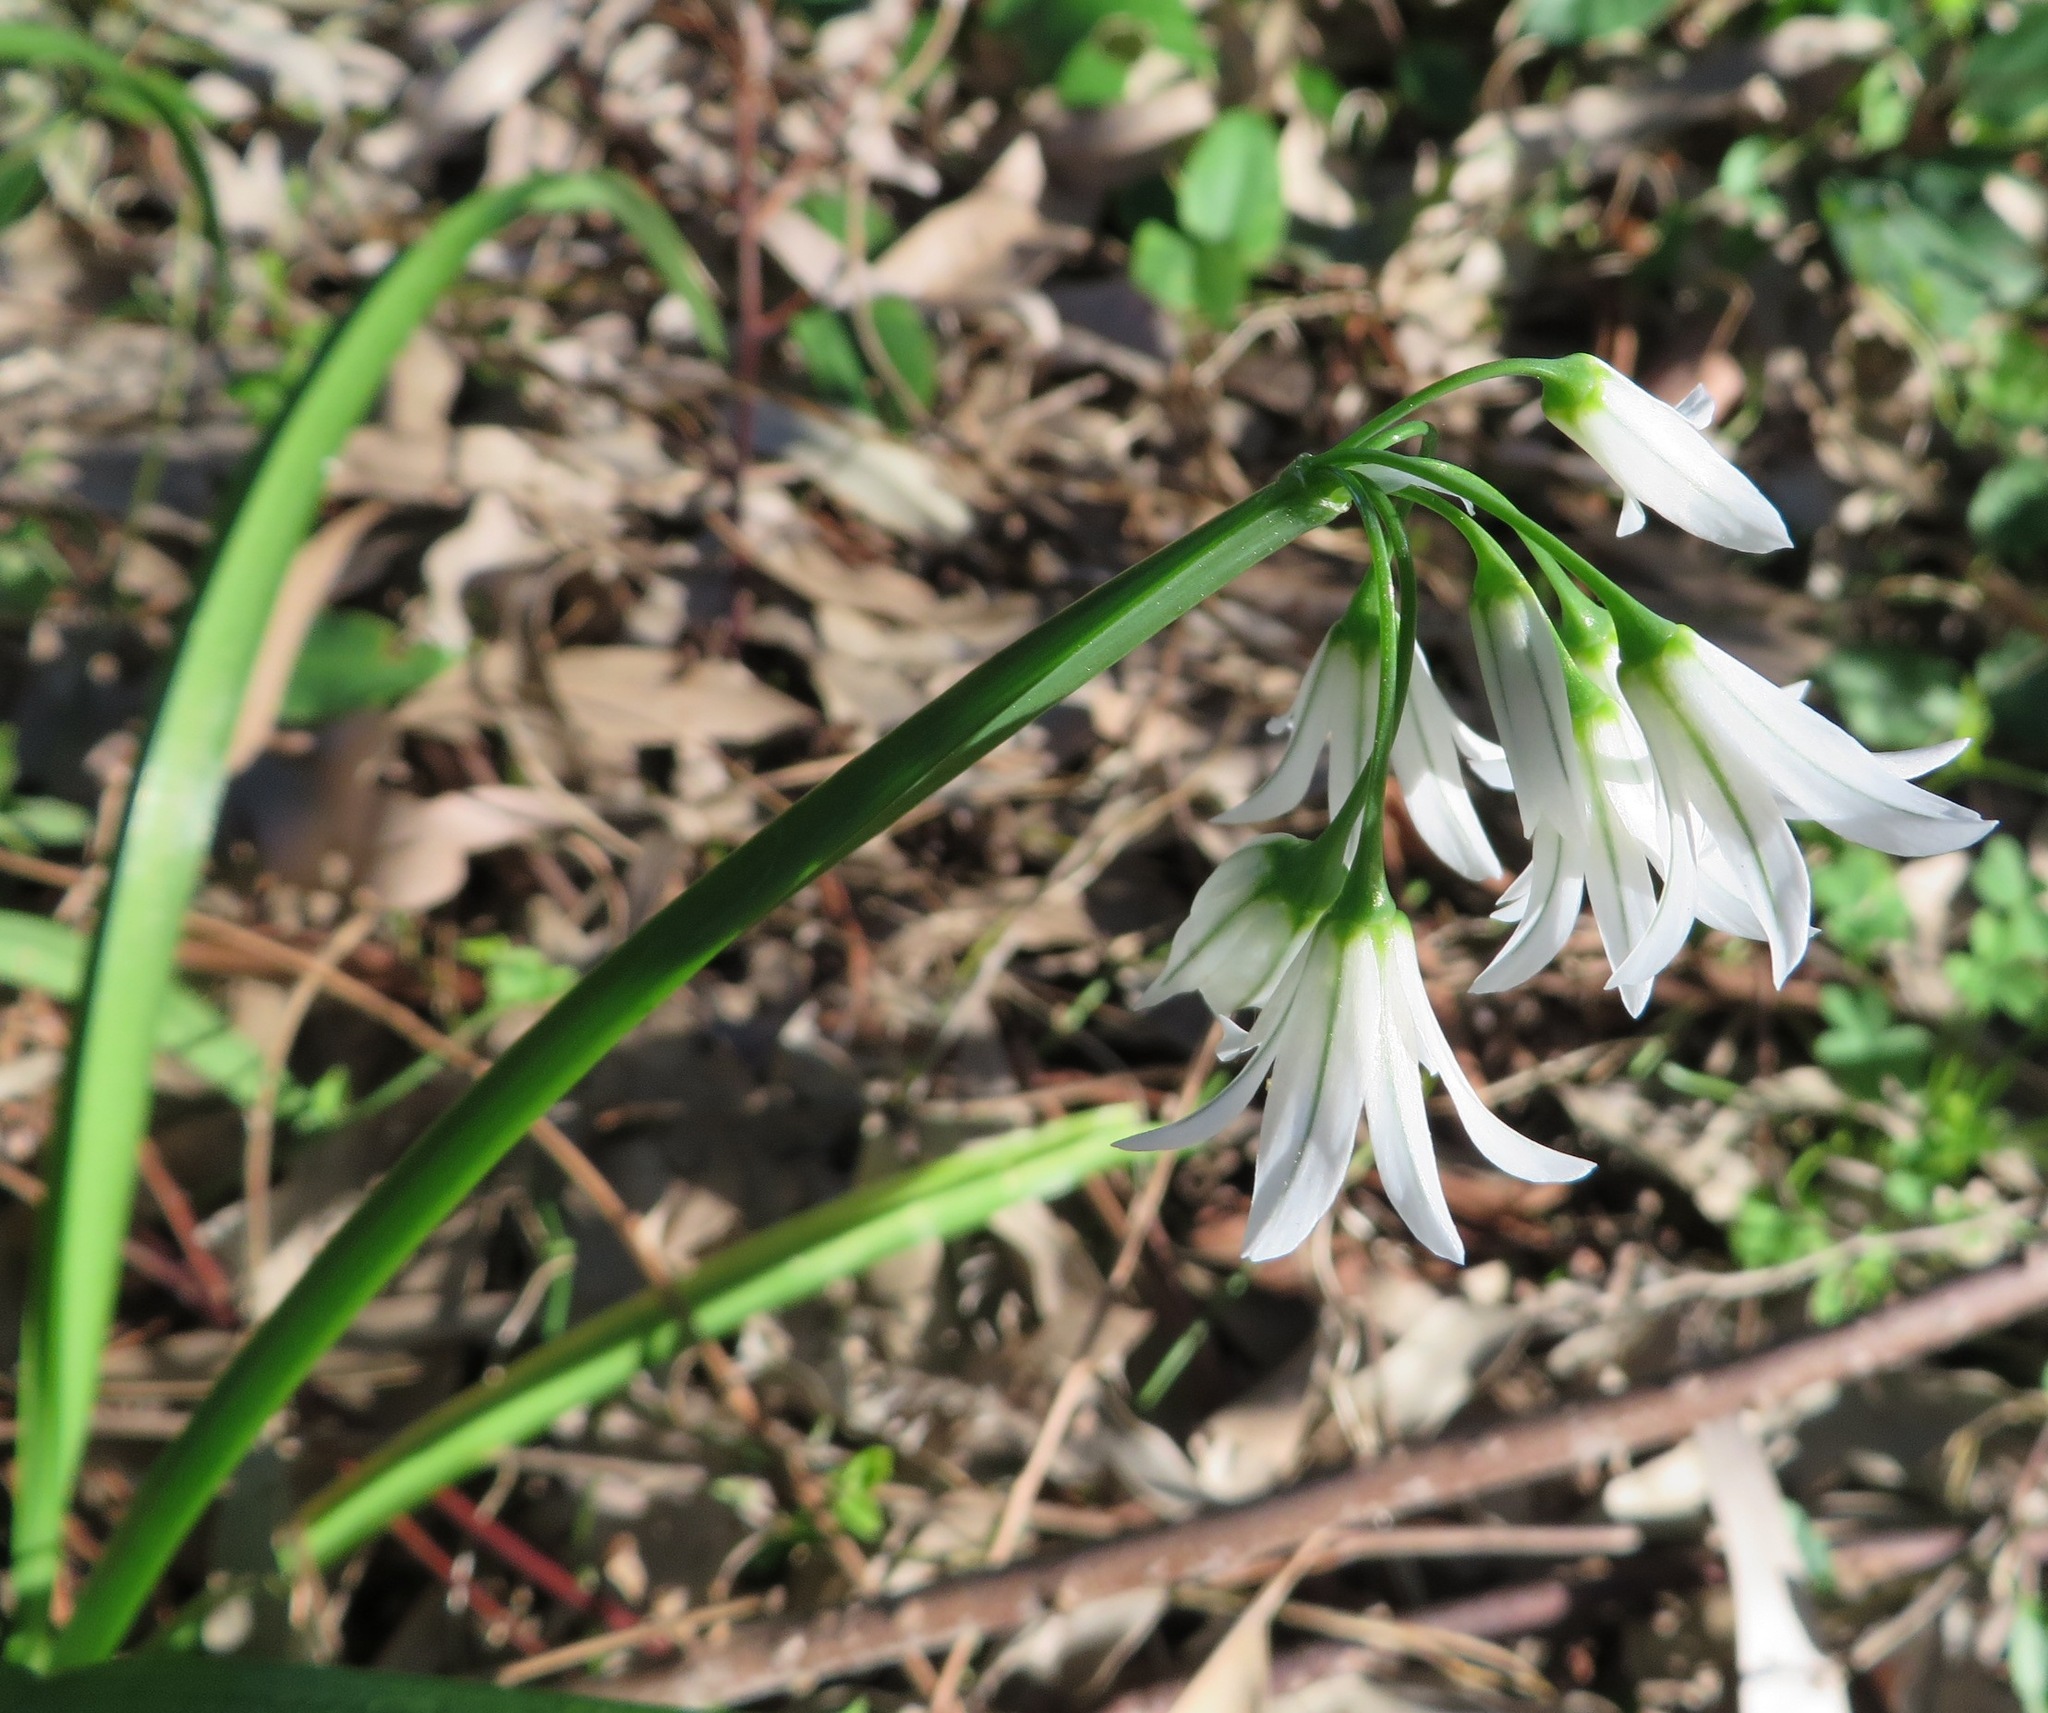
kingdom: Plantae
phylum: Tracheophyta
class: Liliopsida
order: Asparagales
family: Amaryllidaceae
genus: Allium
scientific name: Allium triquetrum
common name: Three-cornered garlic
